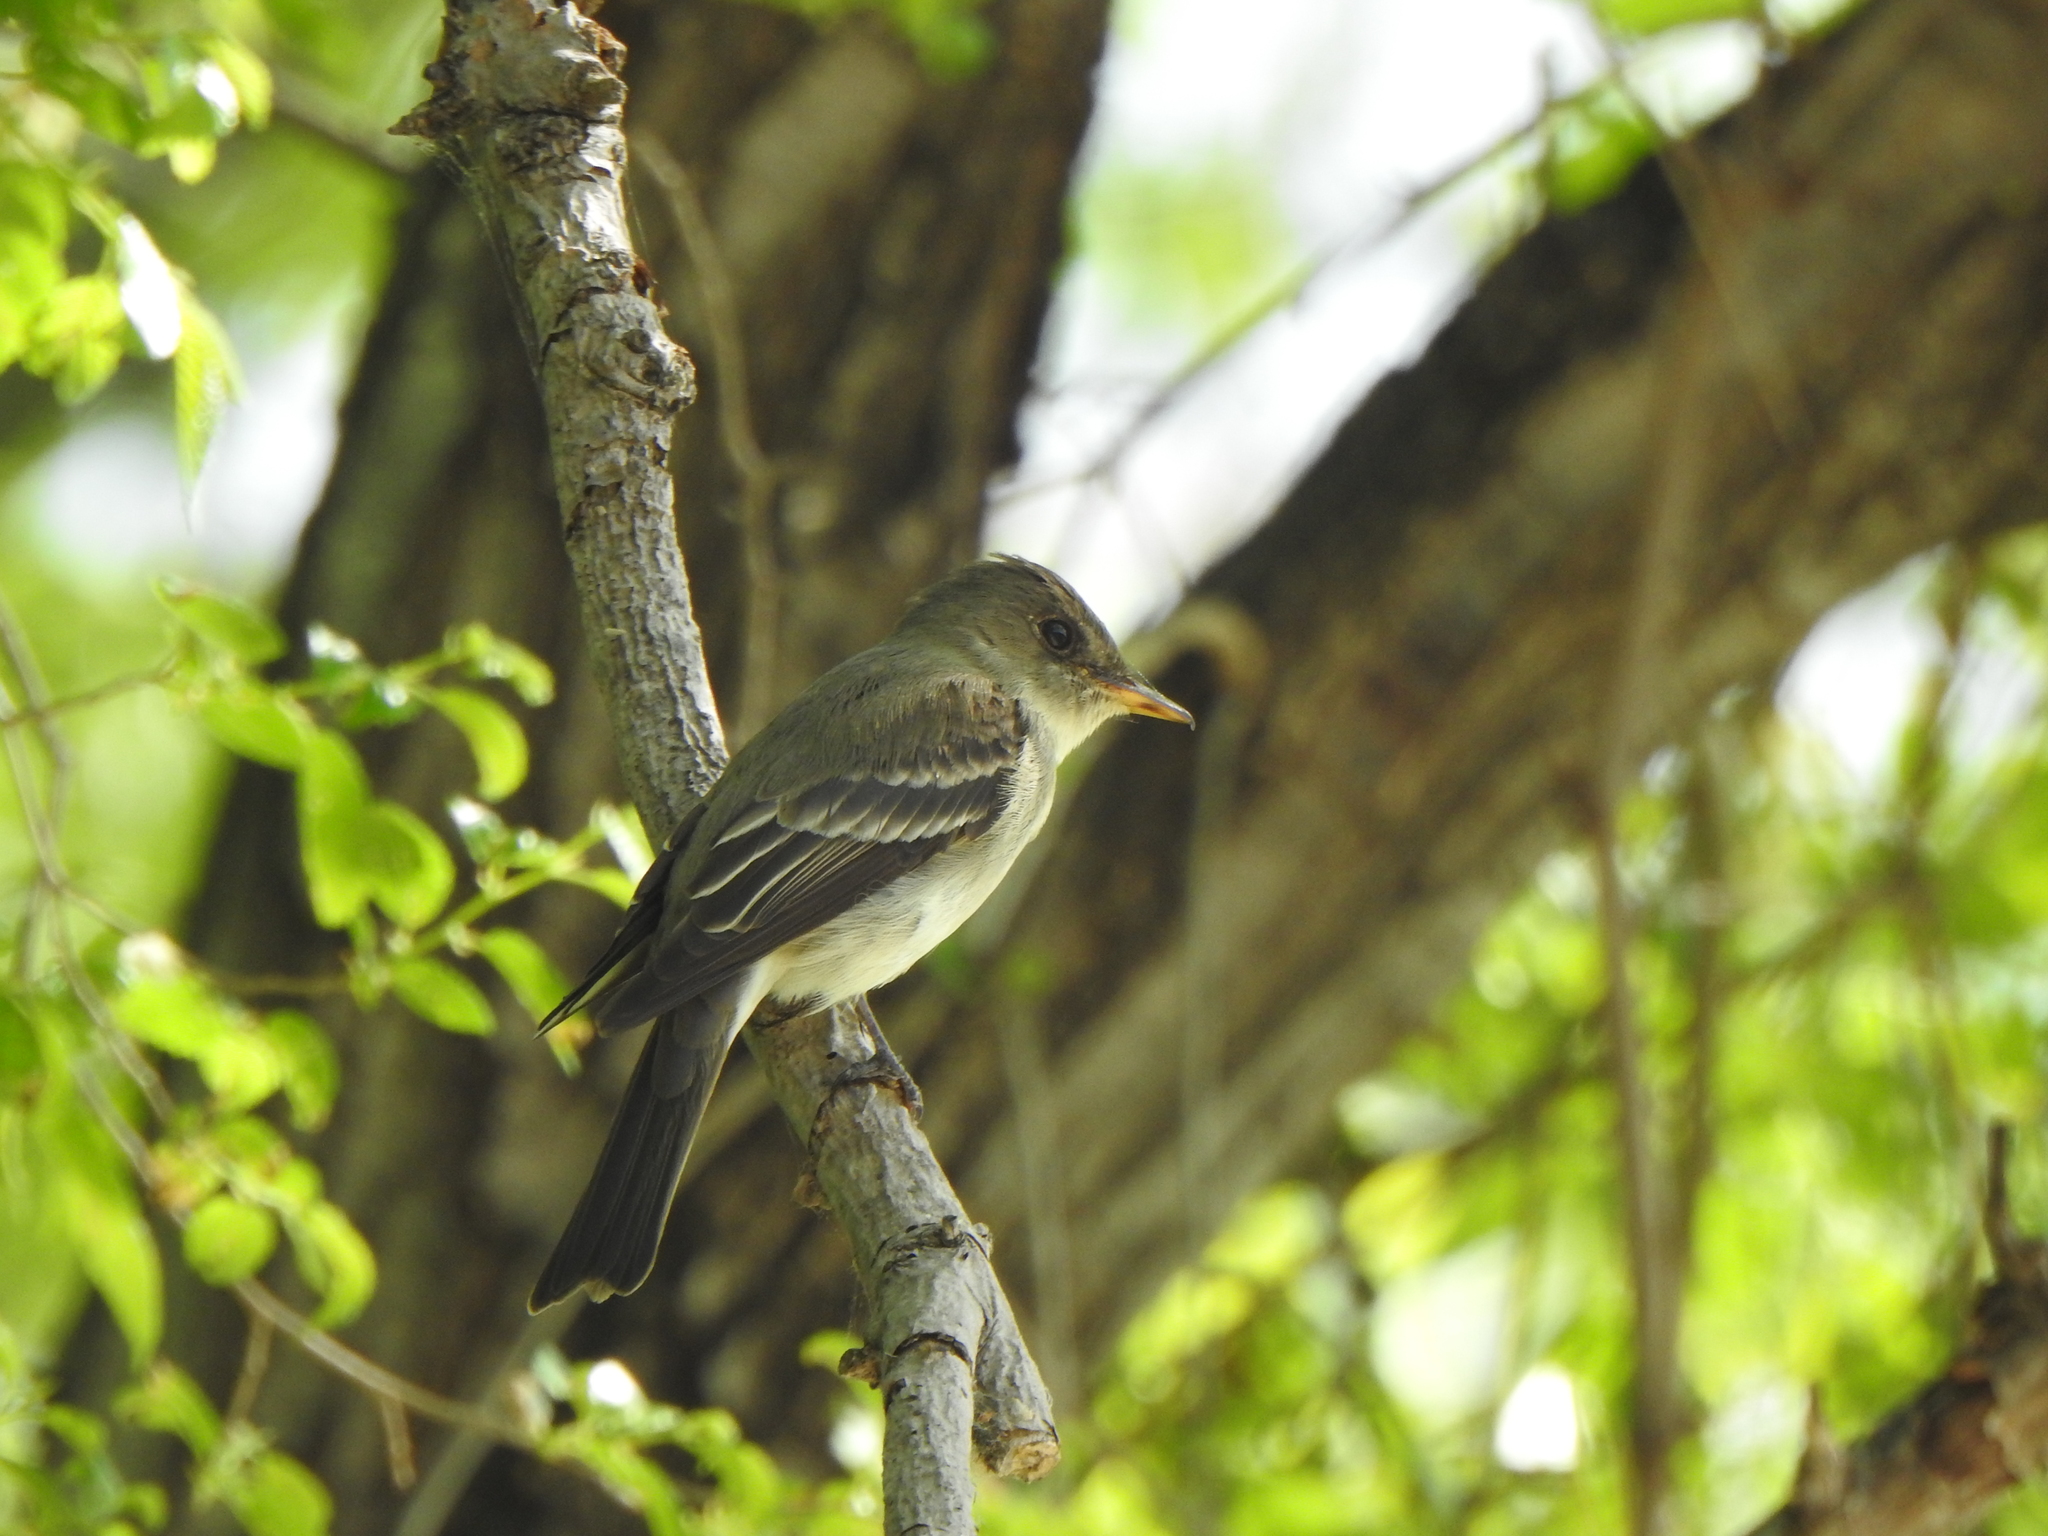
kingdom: Animalia
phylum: Chordata
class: Aves
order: Passeriformes
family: Tyrannidae
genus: Contopus
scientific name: Contopus virens
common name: Eastern wood-pewee
